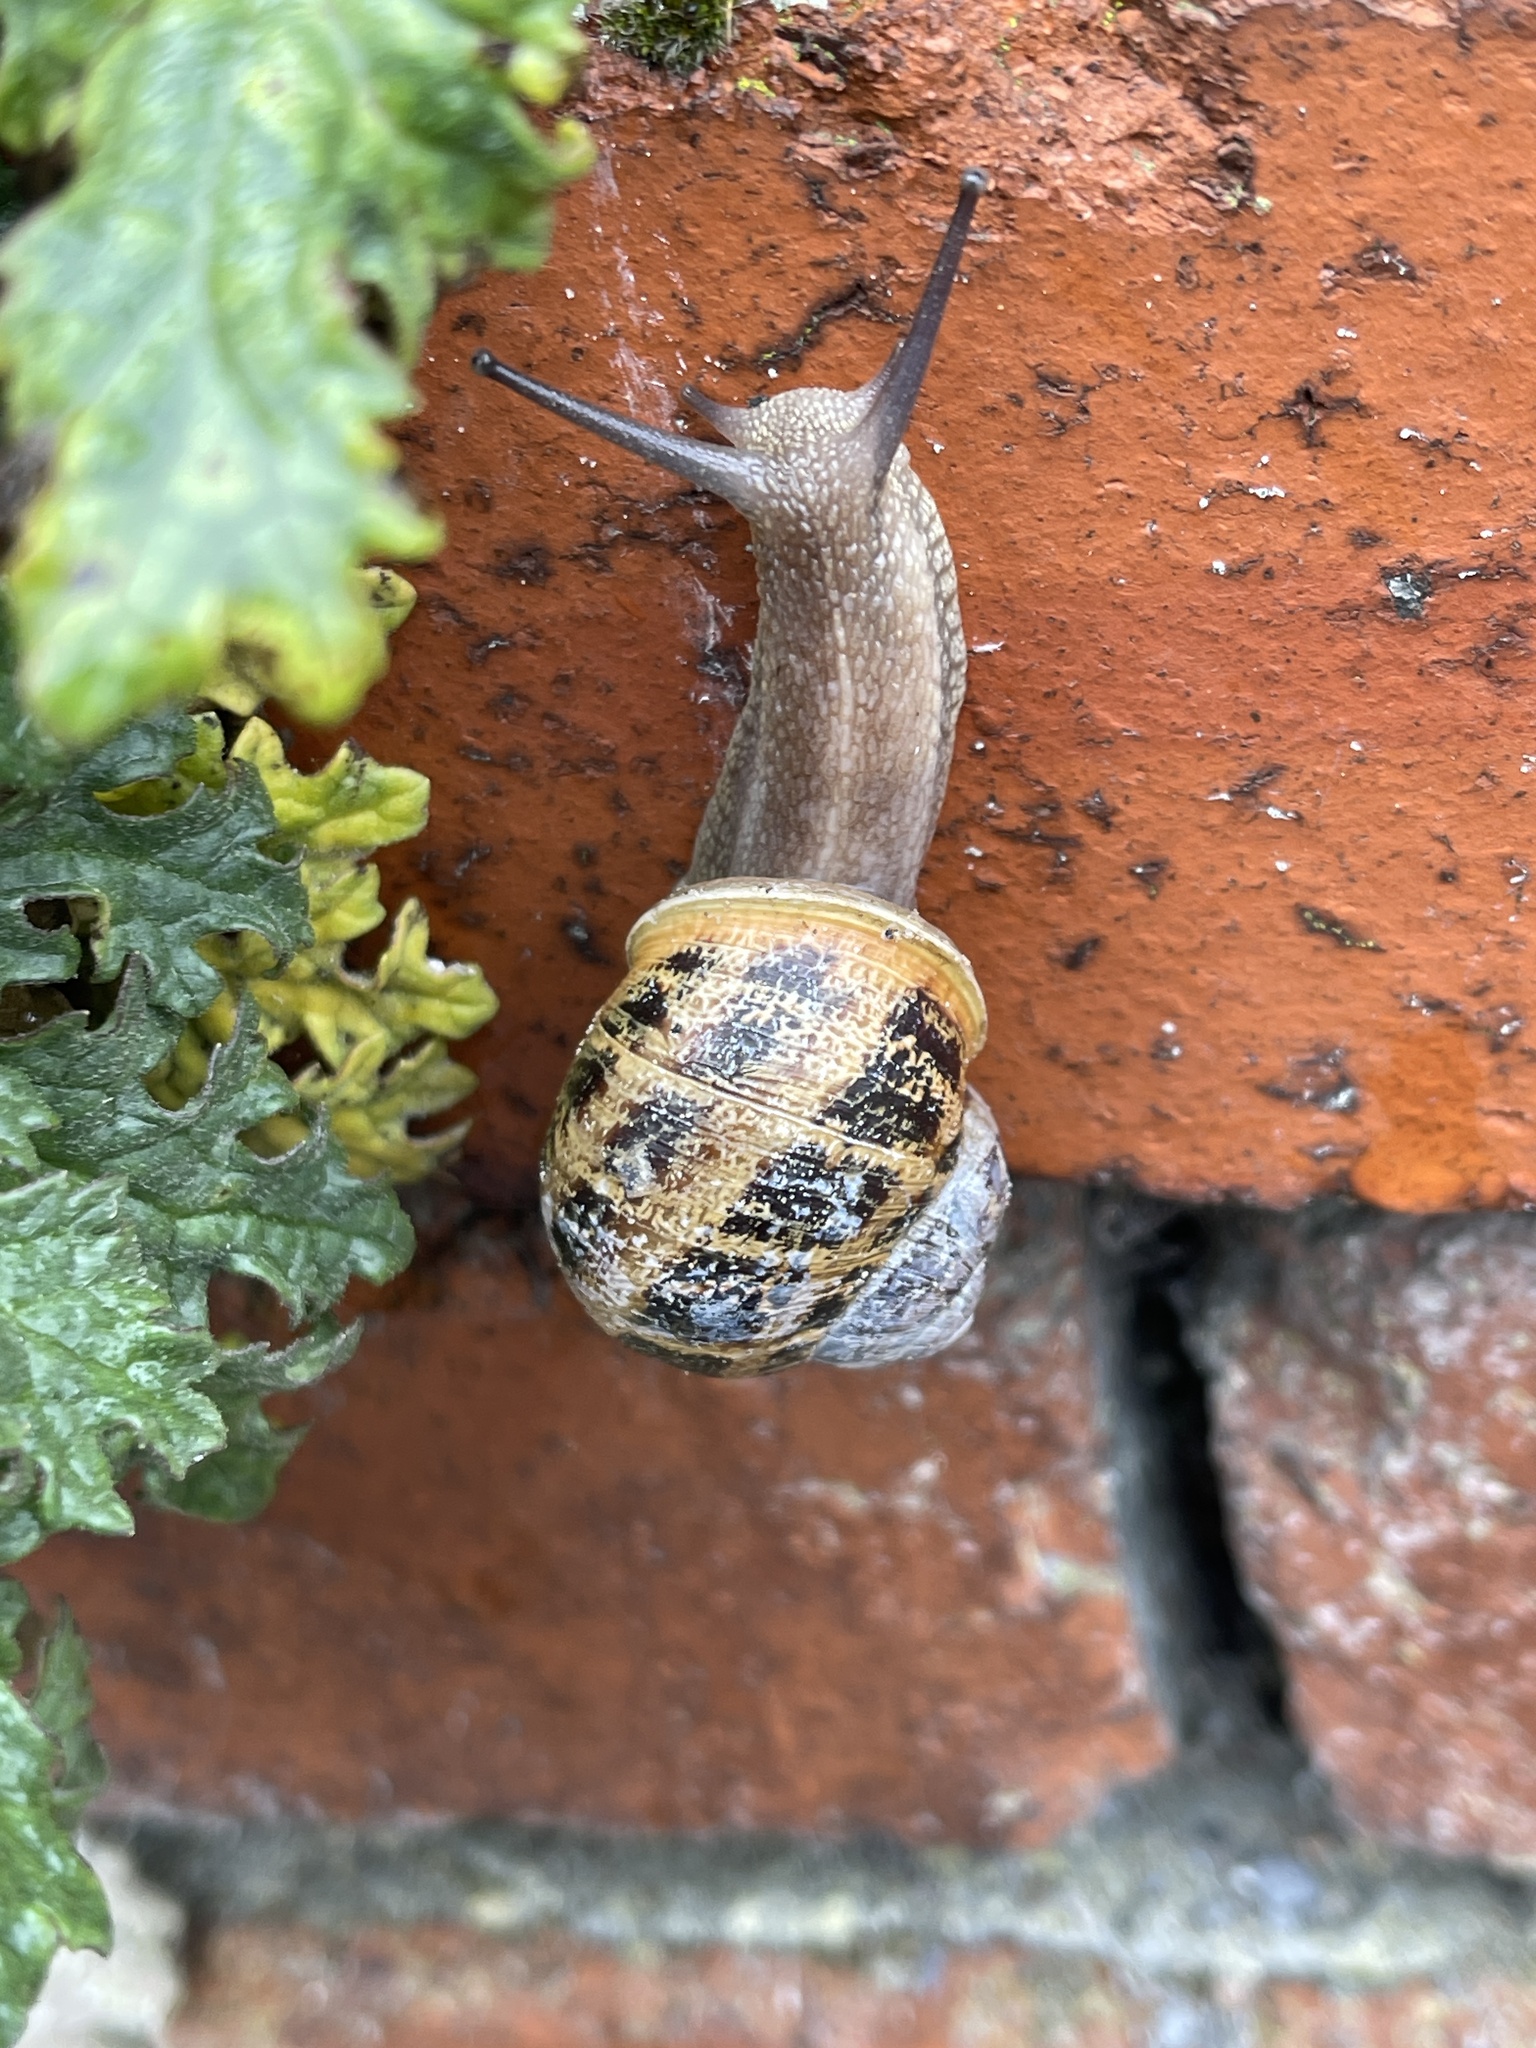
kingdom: Animalia
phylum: Mollusca
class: Gastropoda
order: Stylommatophora
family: Helicidae
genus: Cornu
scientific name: Cornu aspersum
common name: Brown garden snail
